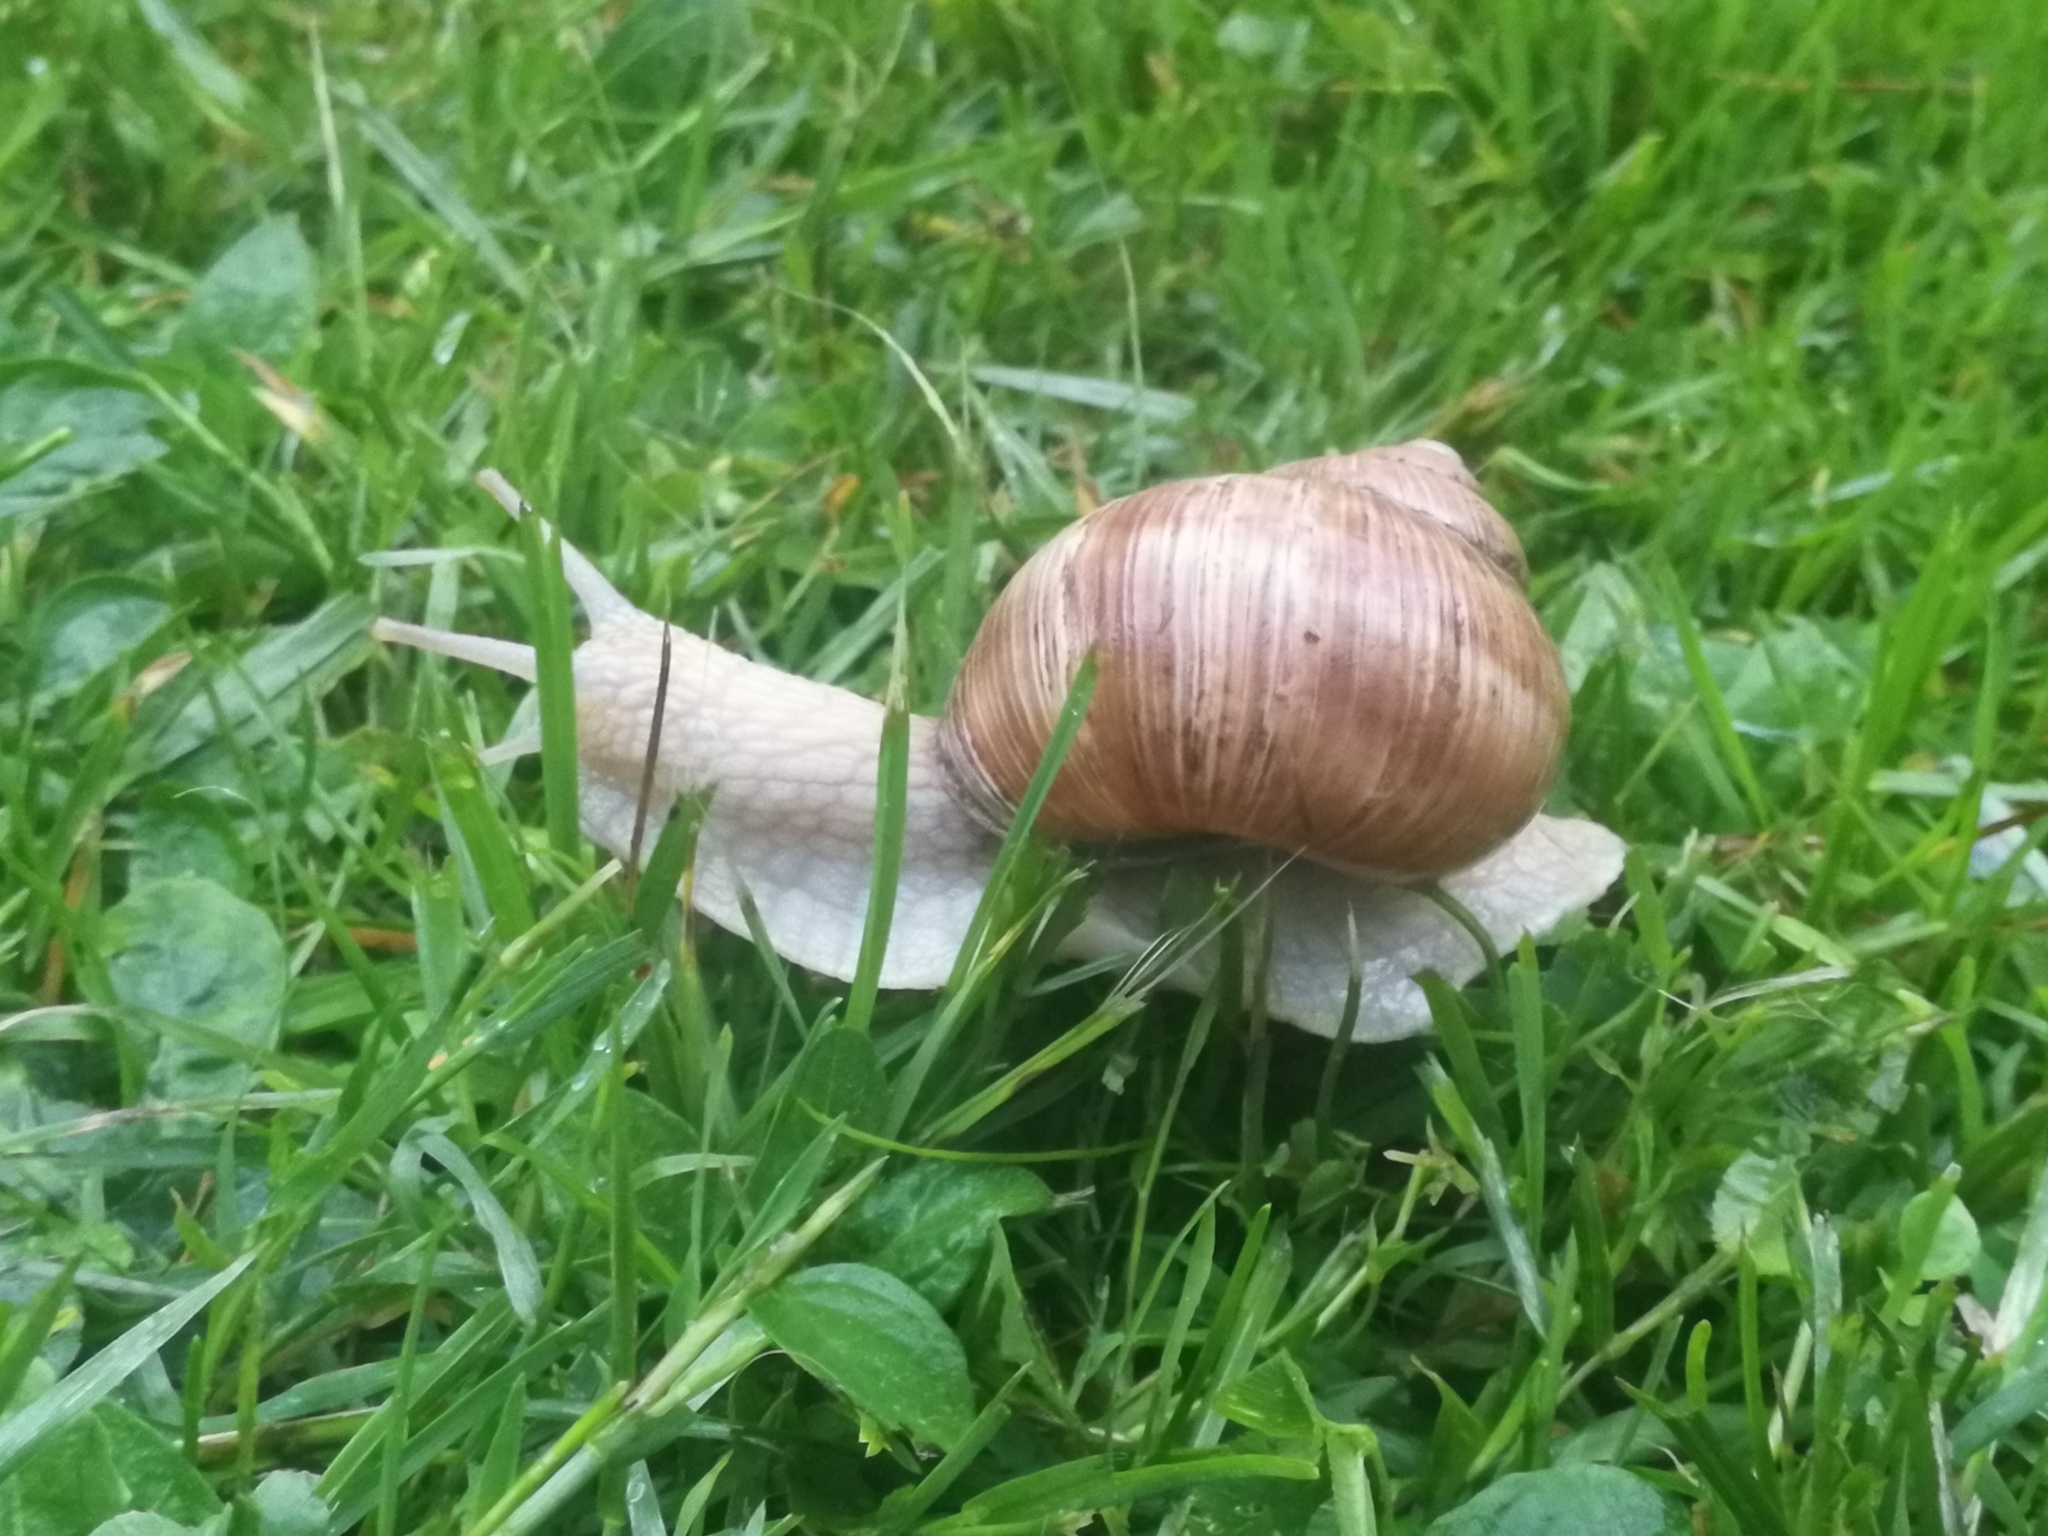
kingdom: Animalia
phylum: Mollusca
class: Gastropoda
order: Stylommatophora
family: Helicidae
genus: Helix
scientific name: Helix pomatia
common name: Roman snail
